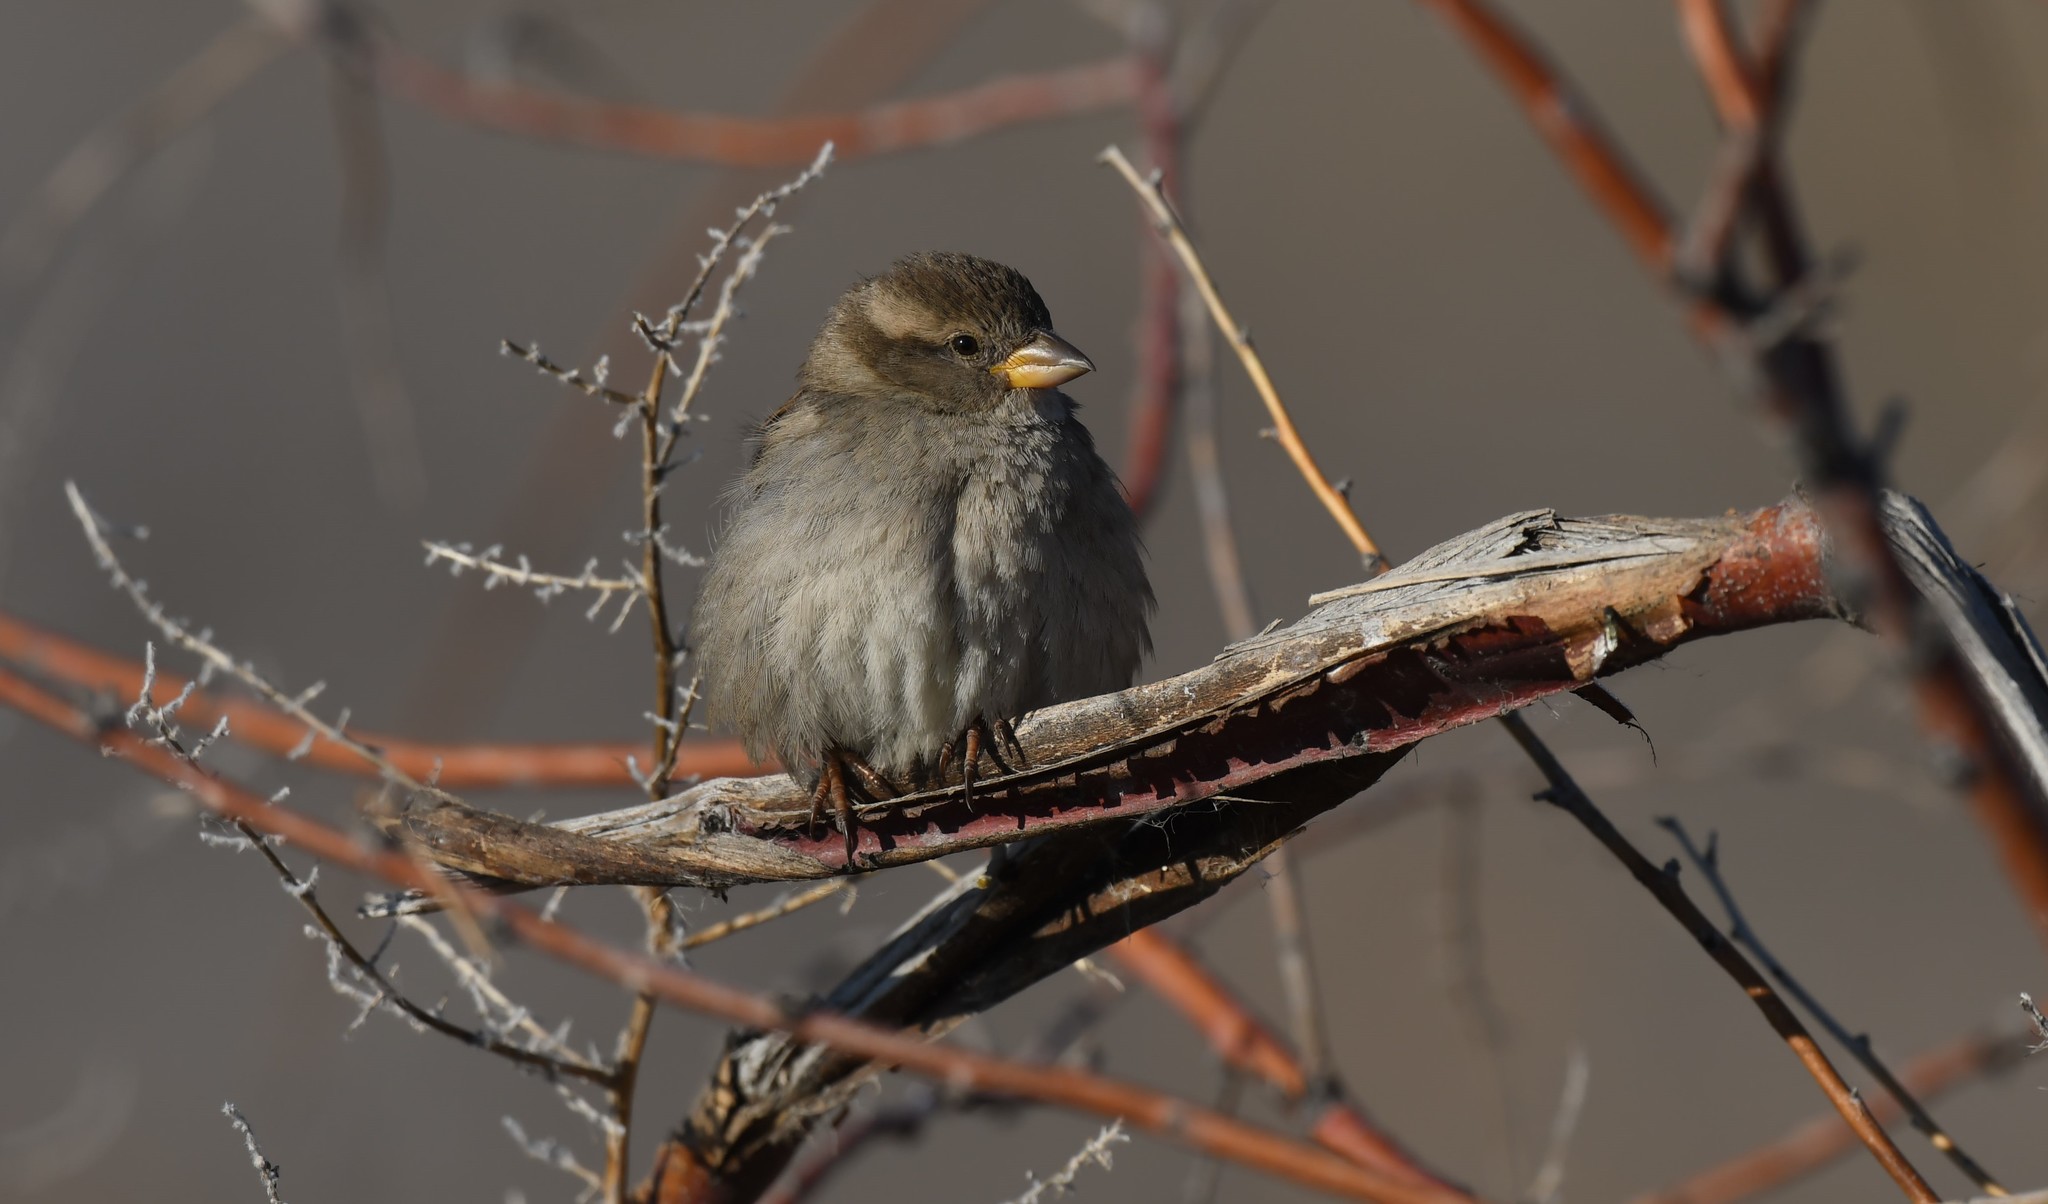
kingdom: Animalia
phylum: Chordata
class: Aves
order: Passeriformes
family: Passeridae
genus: Passer
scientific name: Passer domesticus
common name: House sparrow
